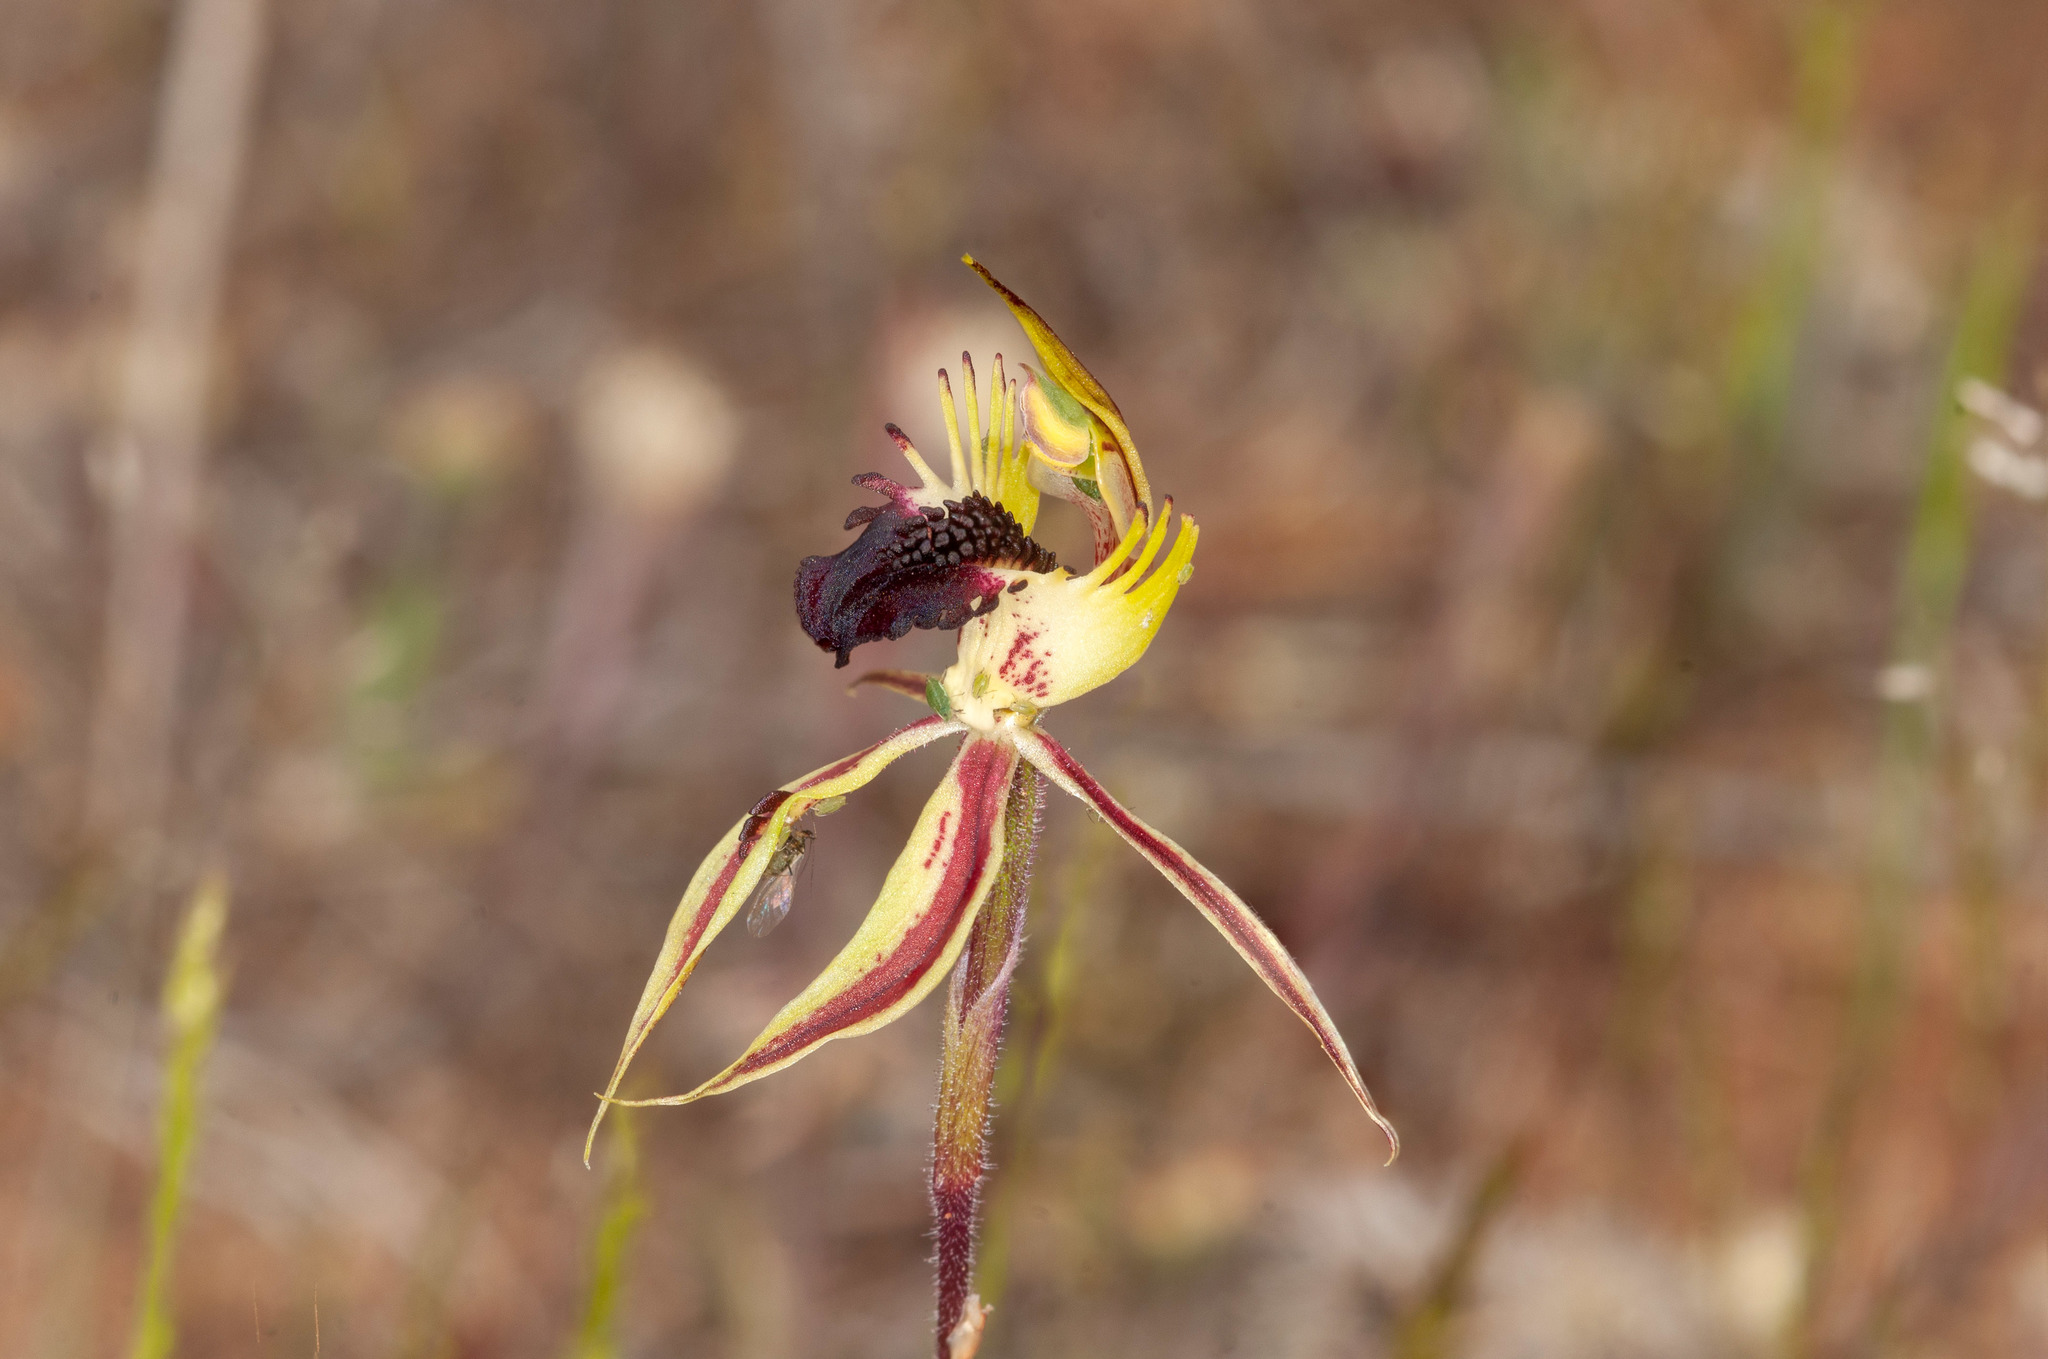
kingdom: Plantae
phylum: Tracheophyta
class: Liliopsida
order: Asparagales
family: Orchidaceae
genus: Caladenia
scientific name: Caladenia stricta
